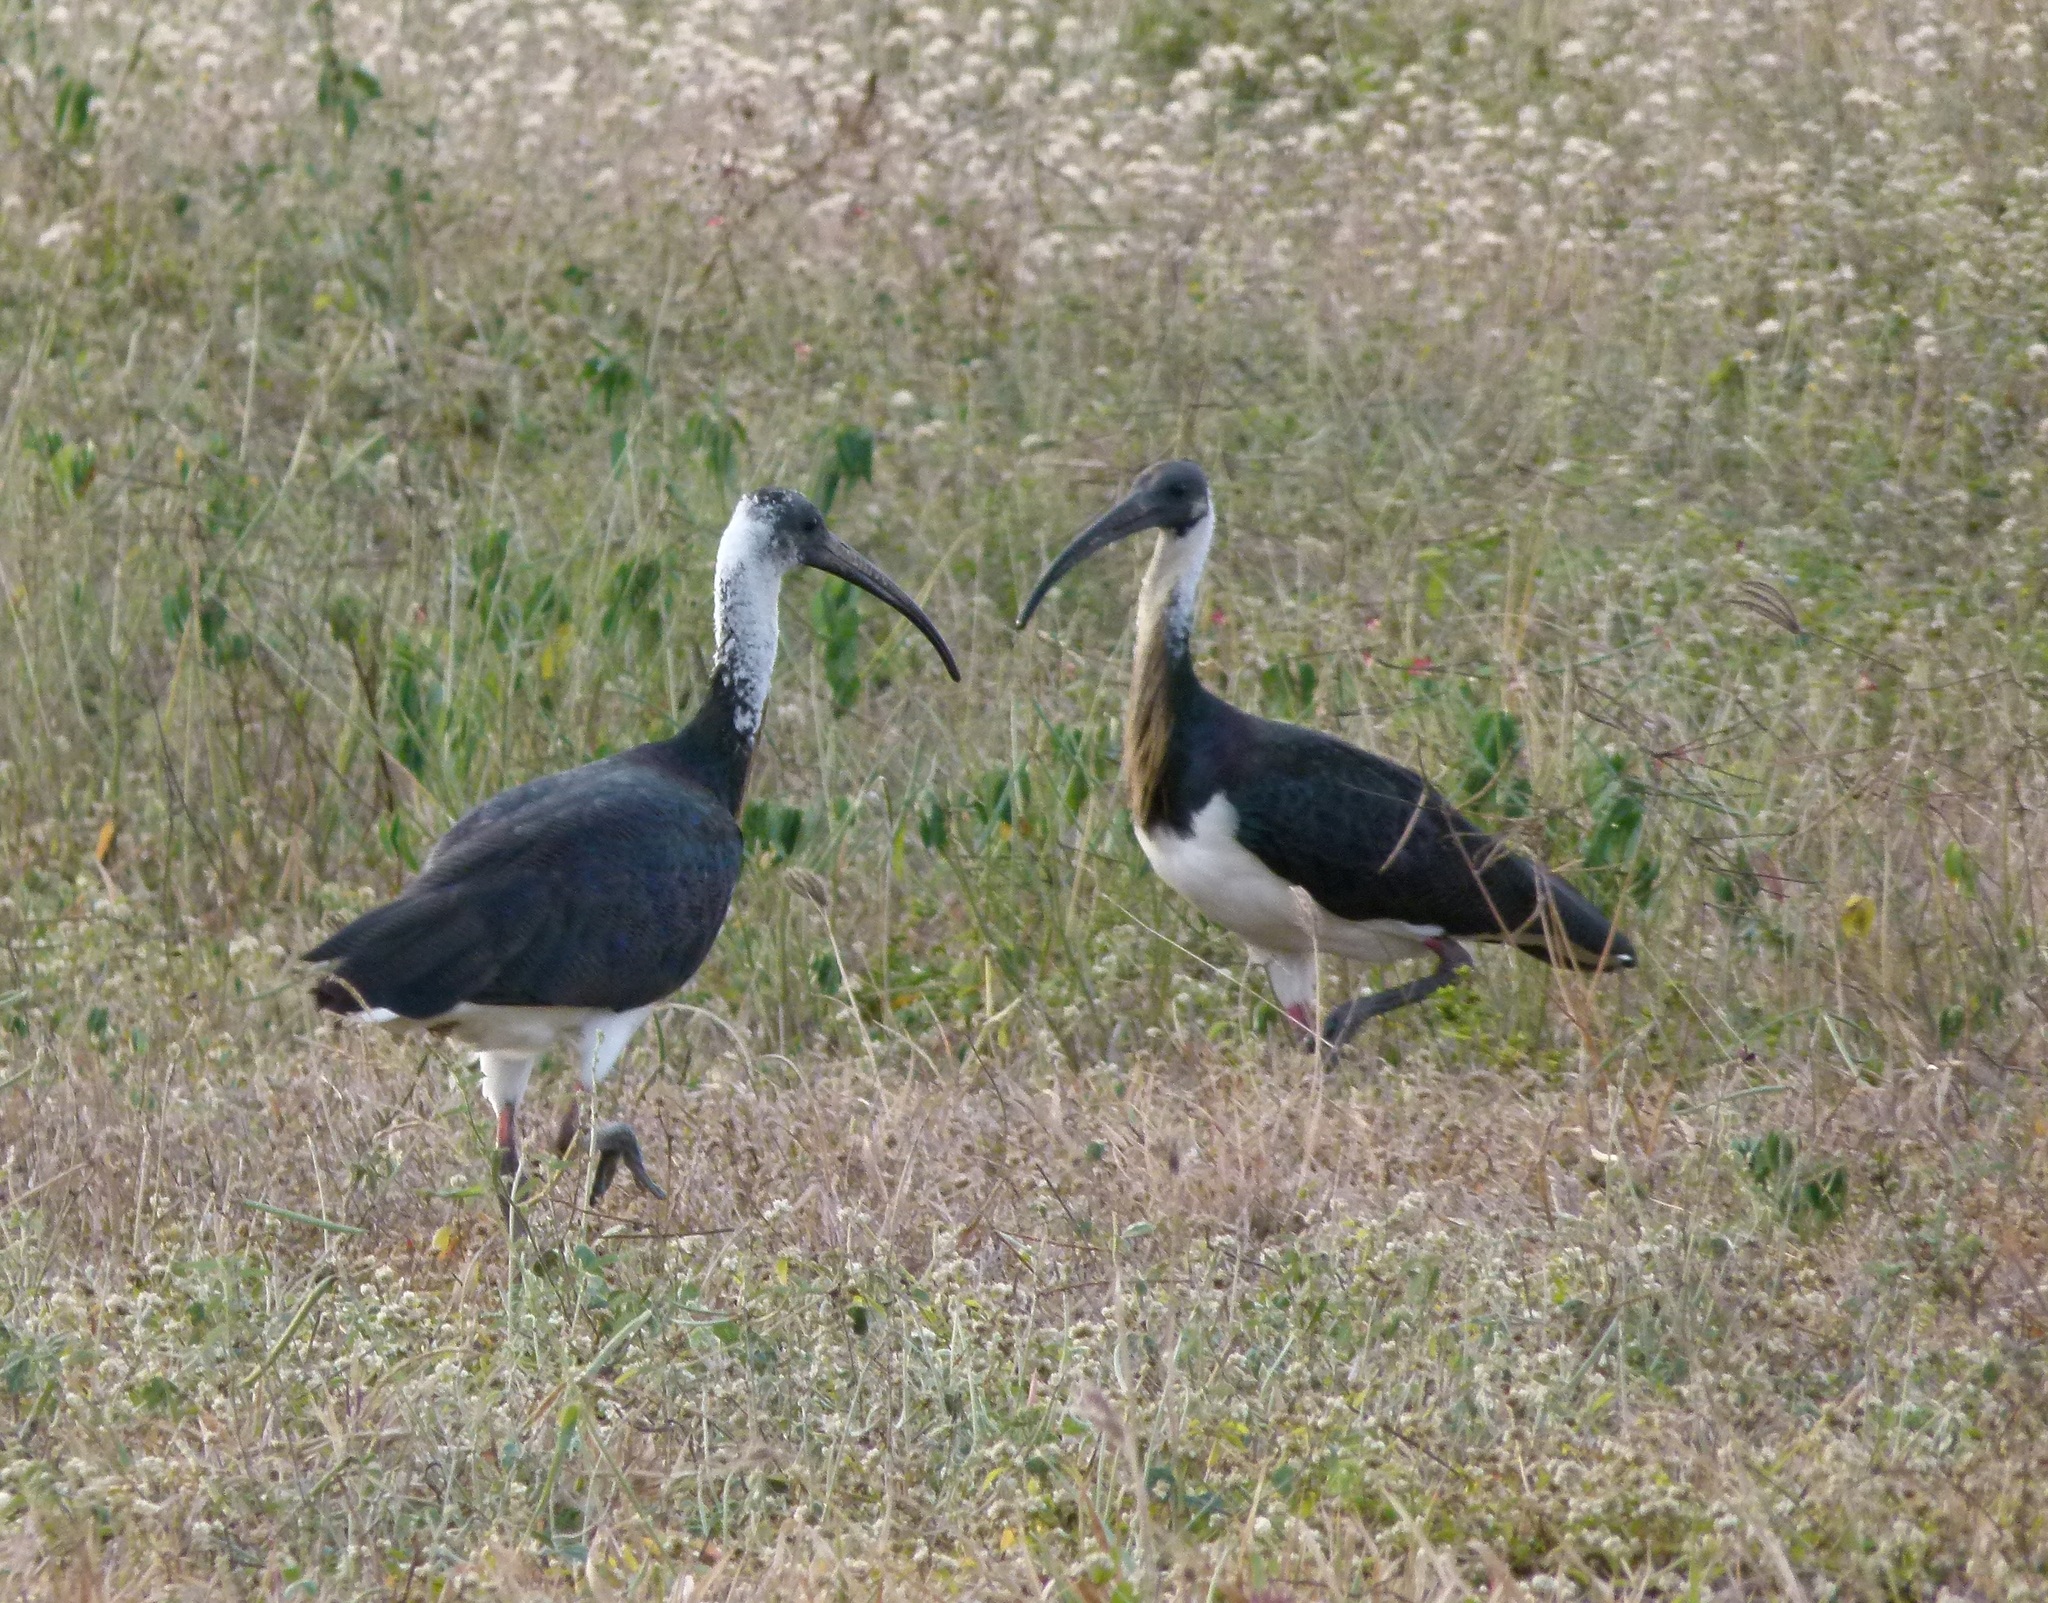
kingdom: Animalia
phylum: Chordata
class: Aves
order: Pelecaniformes
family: Threskiornithidae
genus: Threskiornis
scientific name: Threskiornis spinicollis
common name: Straw-necked ibis
